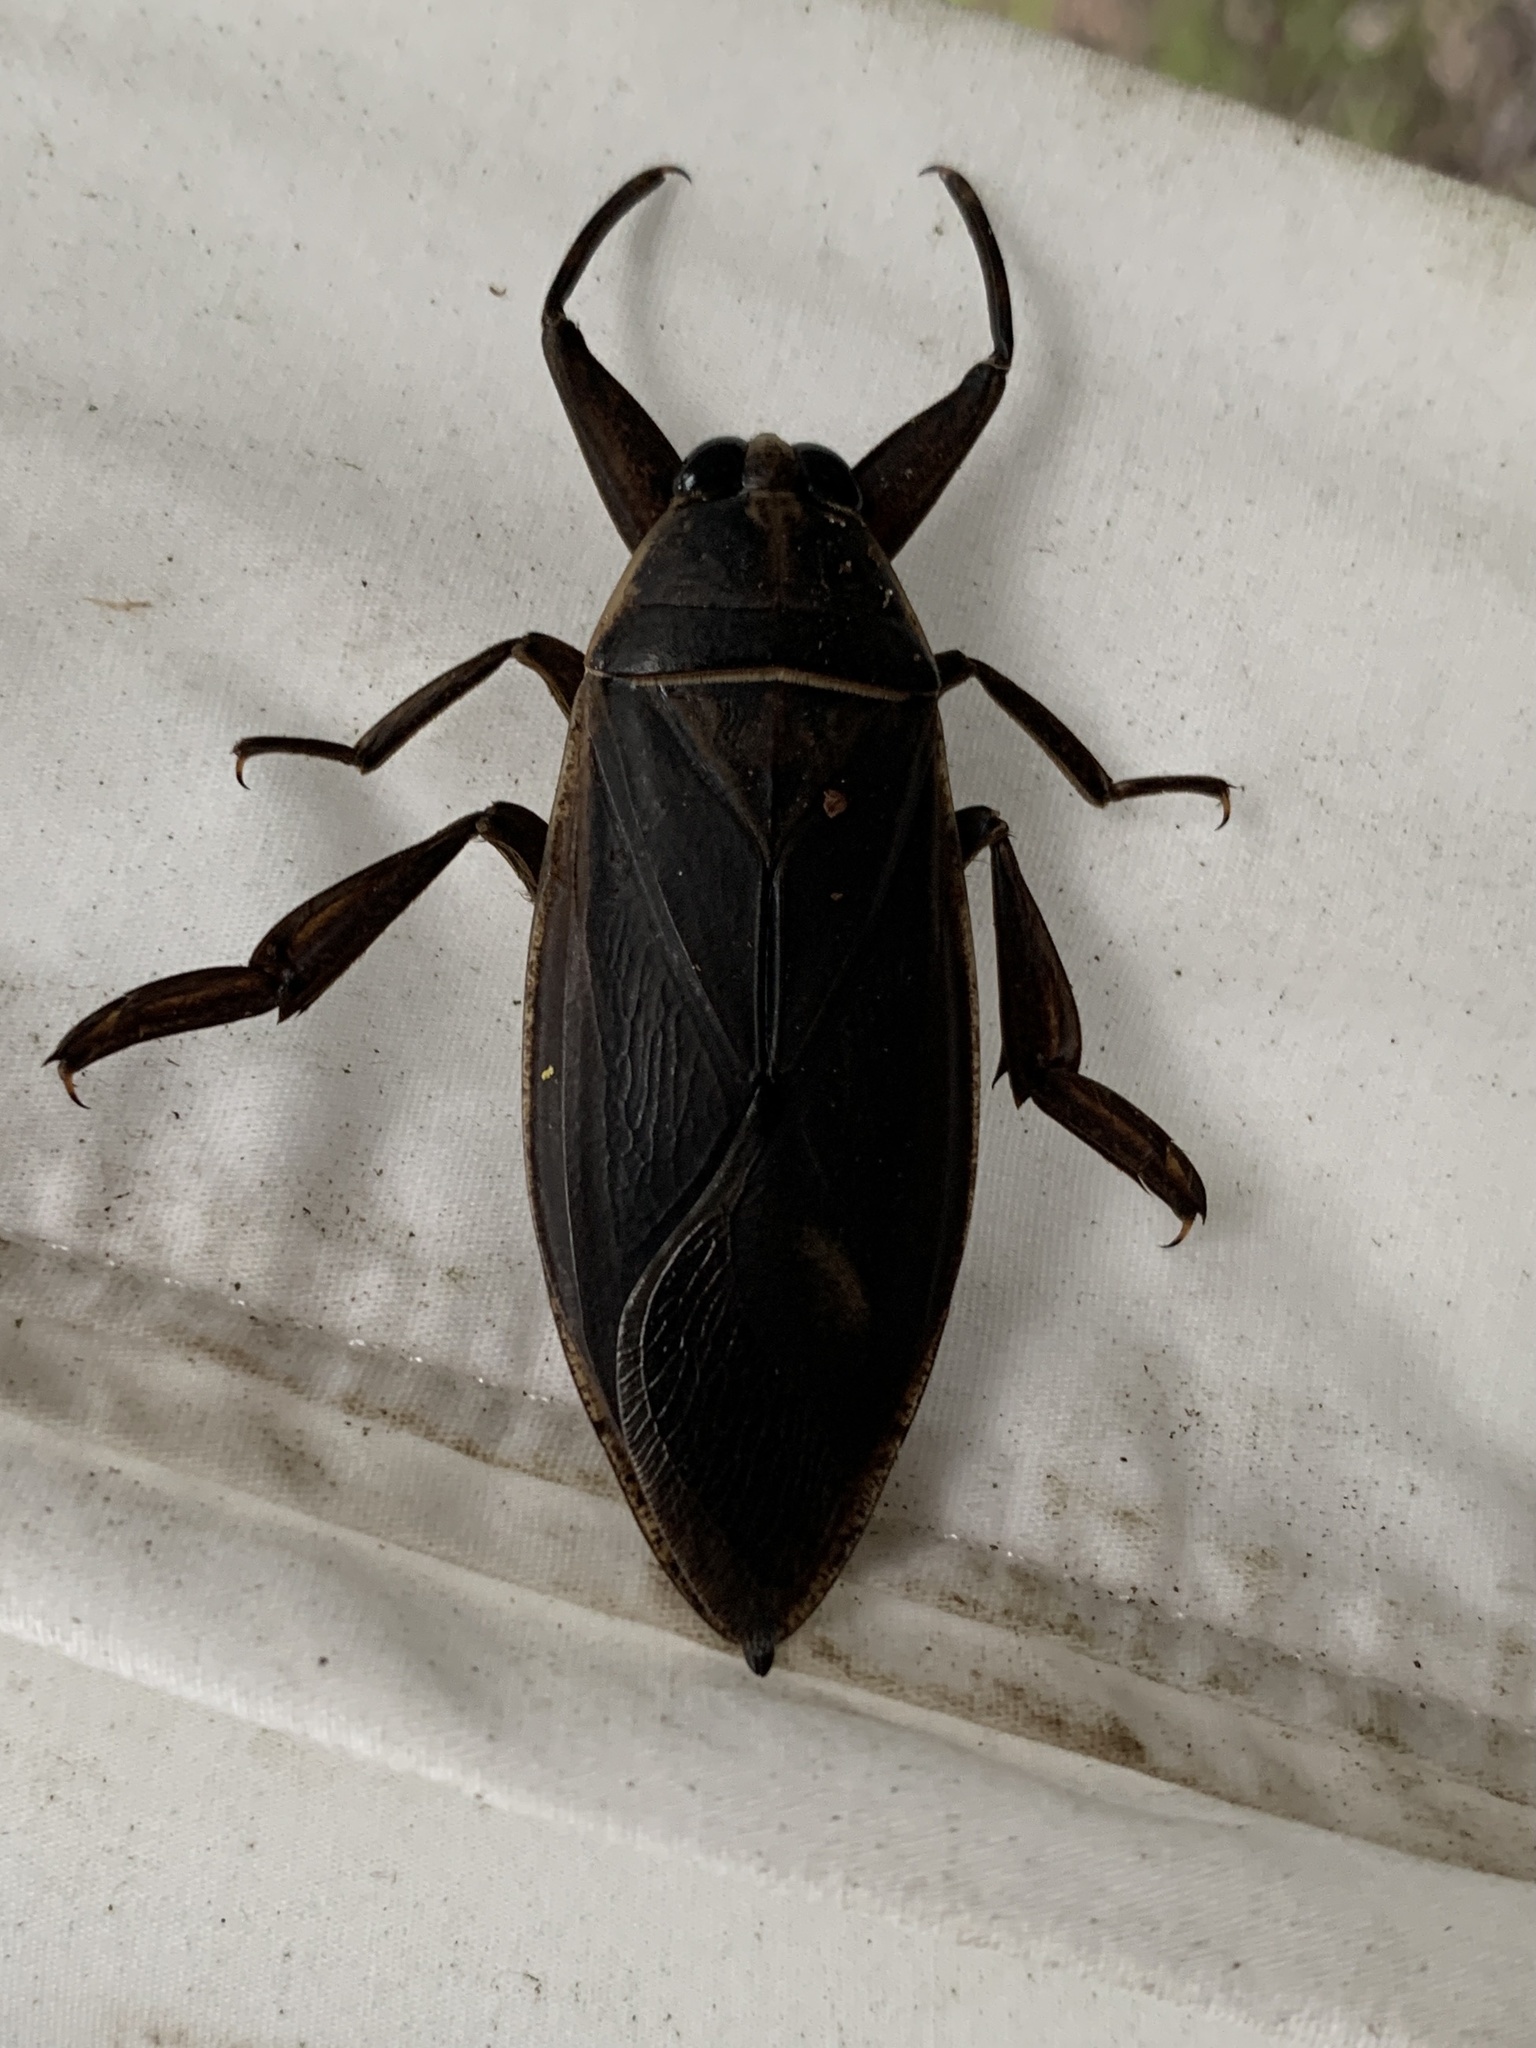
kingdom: Animalia
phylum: Arthropoda
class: Insecta
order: Hemiptera
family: Belostomatidae
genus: Benacus
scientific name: Benacus griseus
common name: Eastern toe-biter
